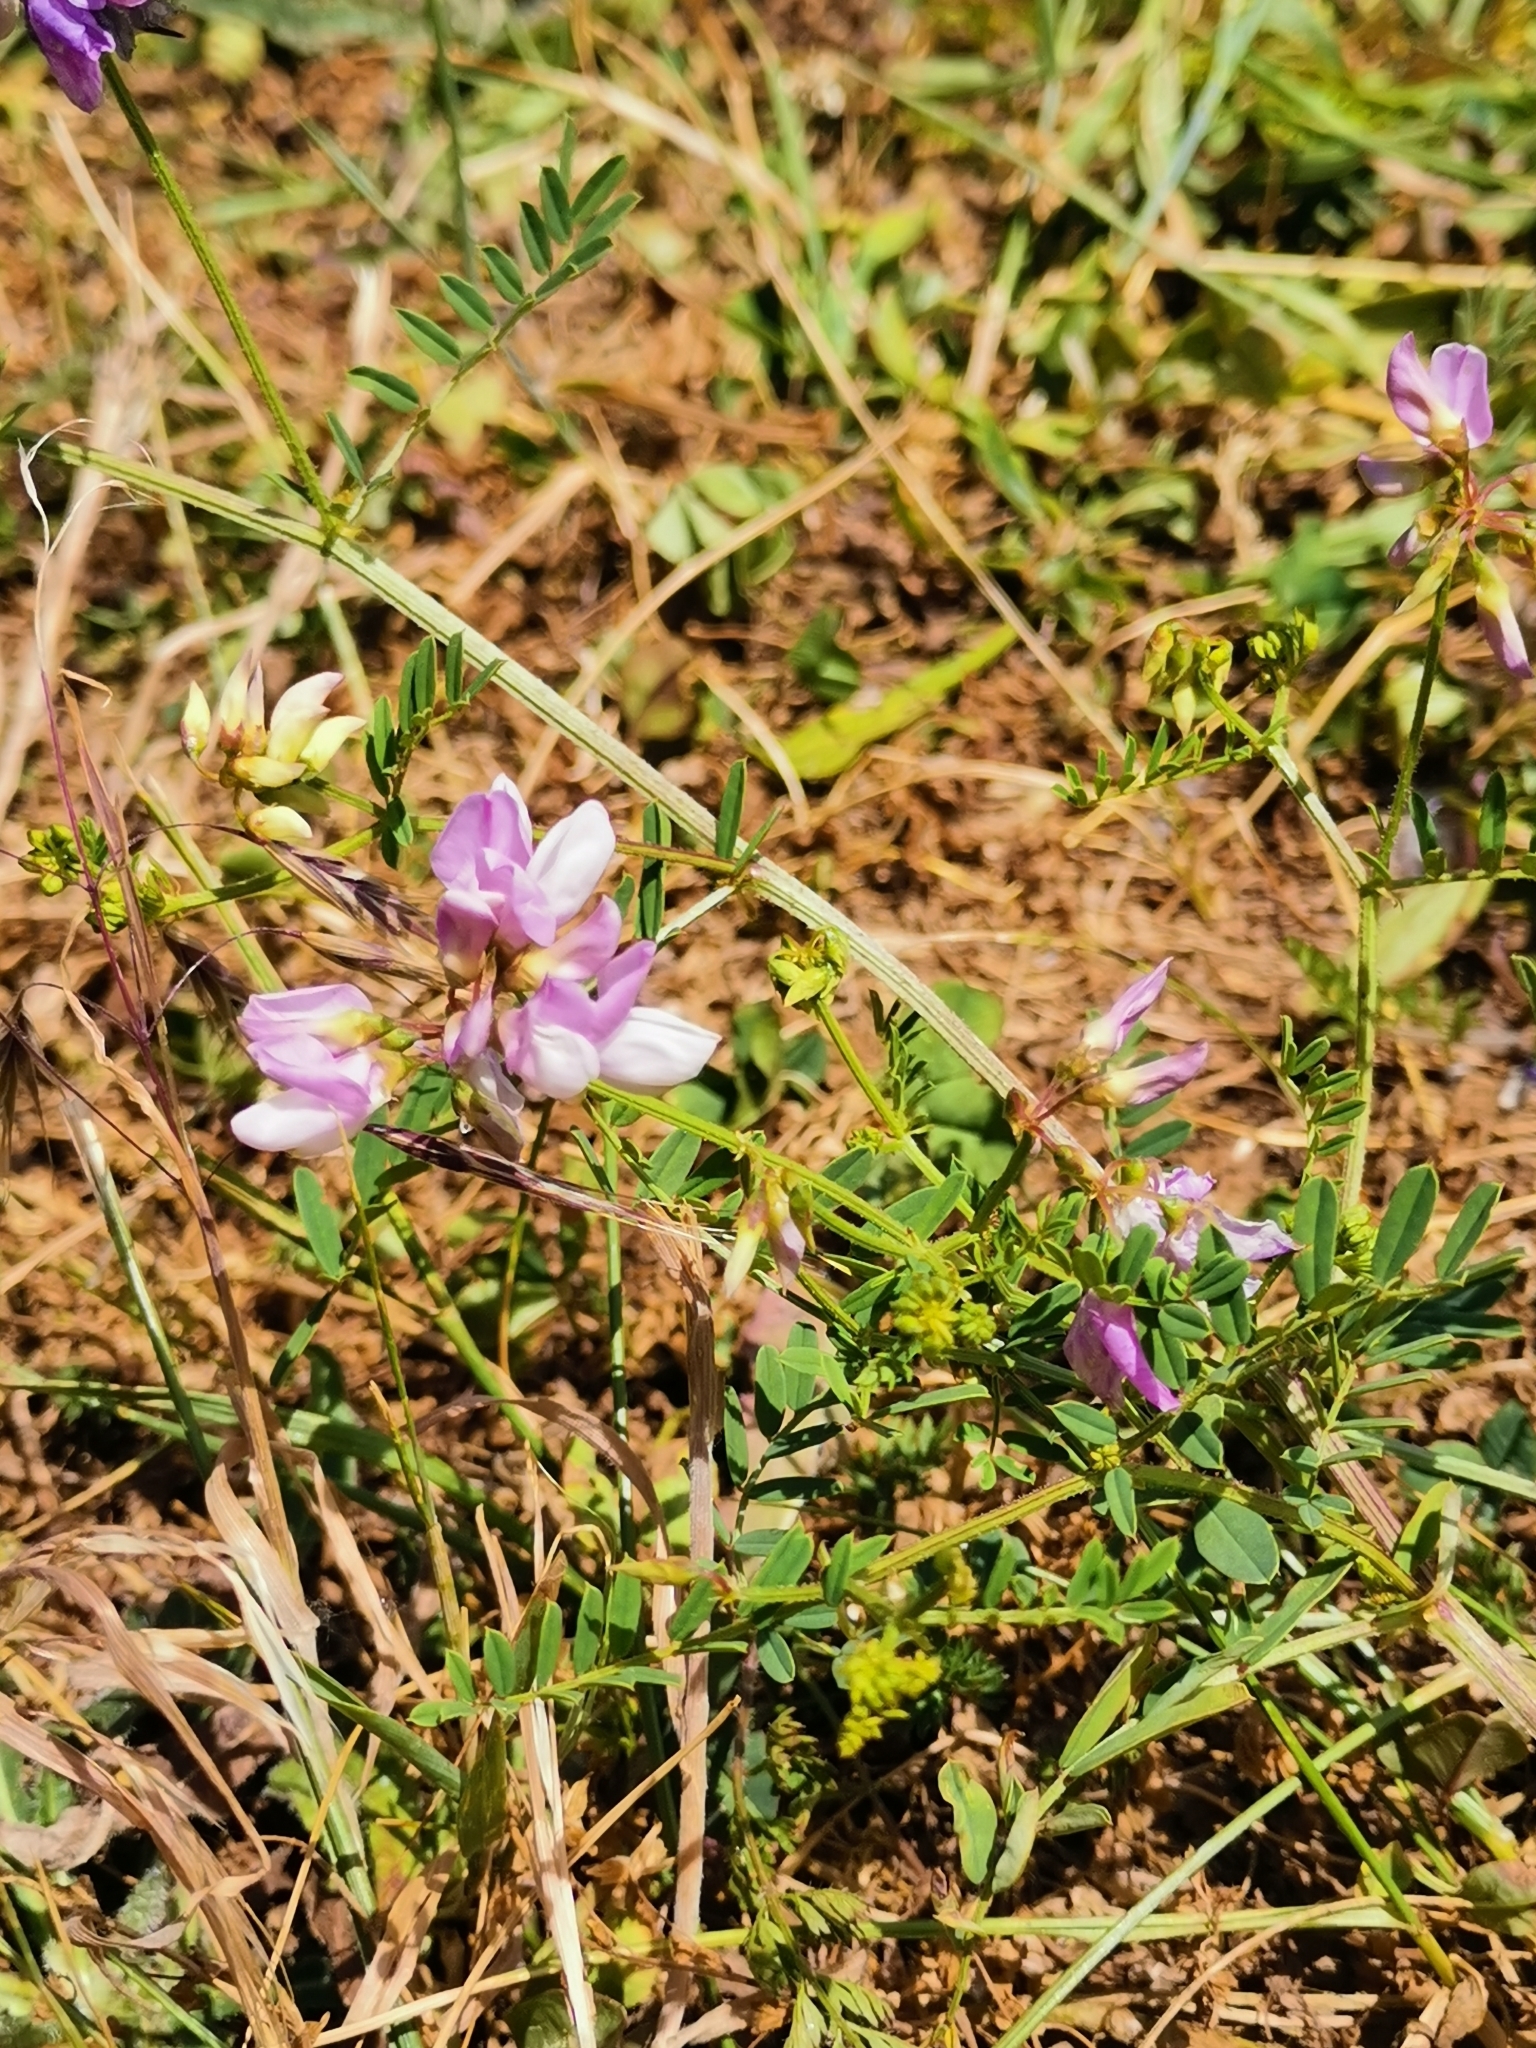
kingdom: Plantae
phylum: Tracheophyta
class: Magnoliopsida
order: Fabales
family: Fabaceae
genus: Coronilla
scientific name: Coronilla varia
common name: Crownvetch
